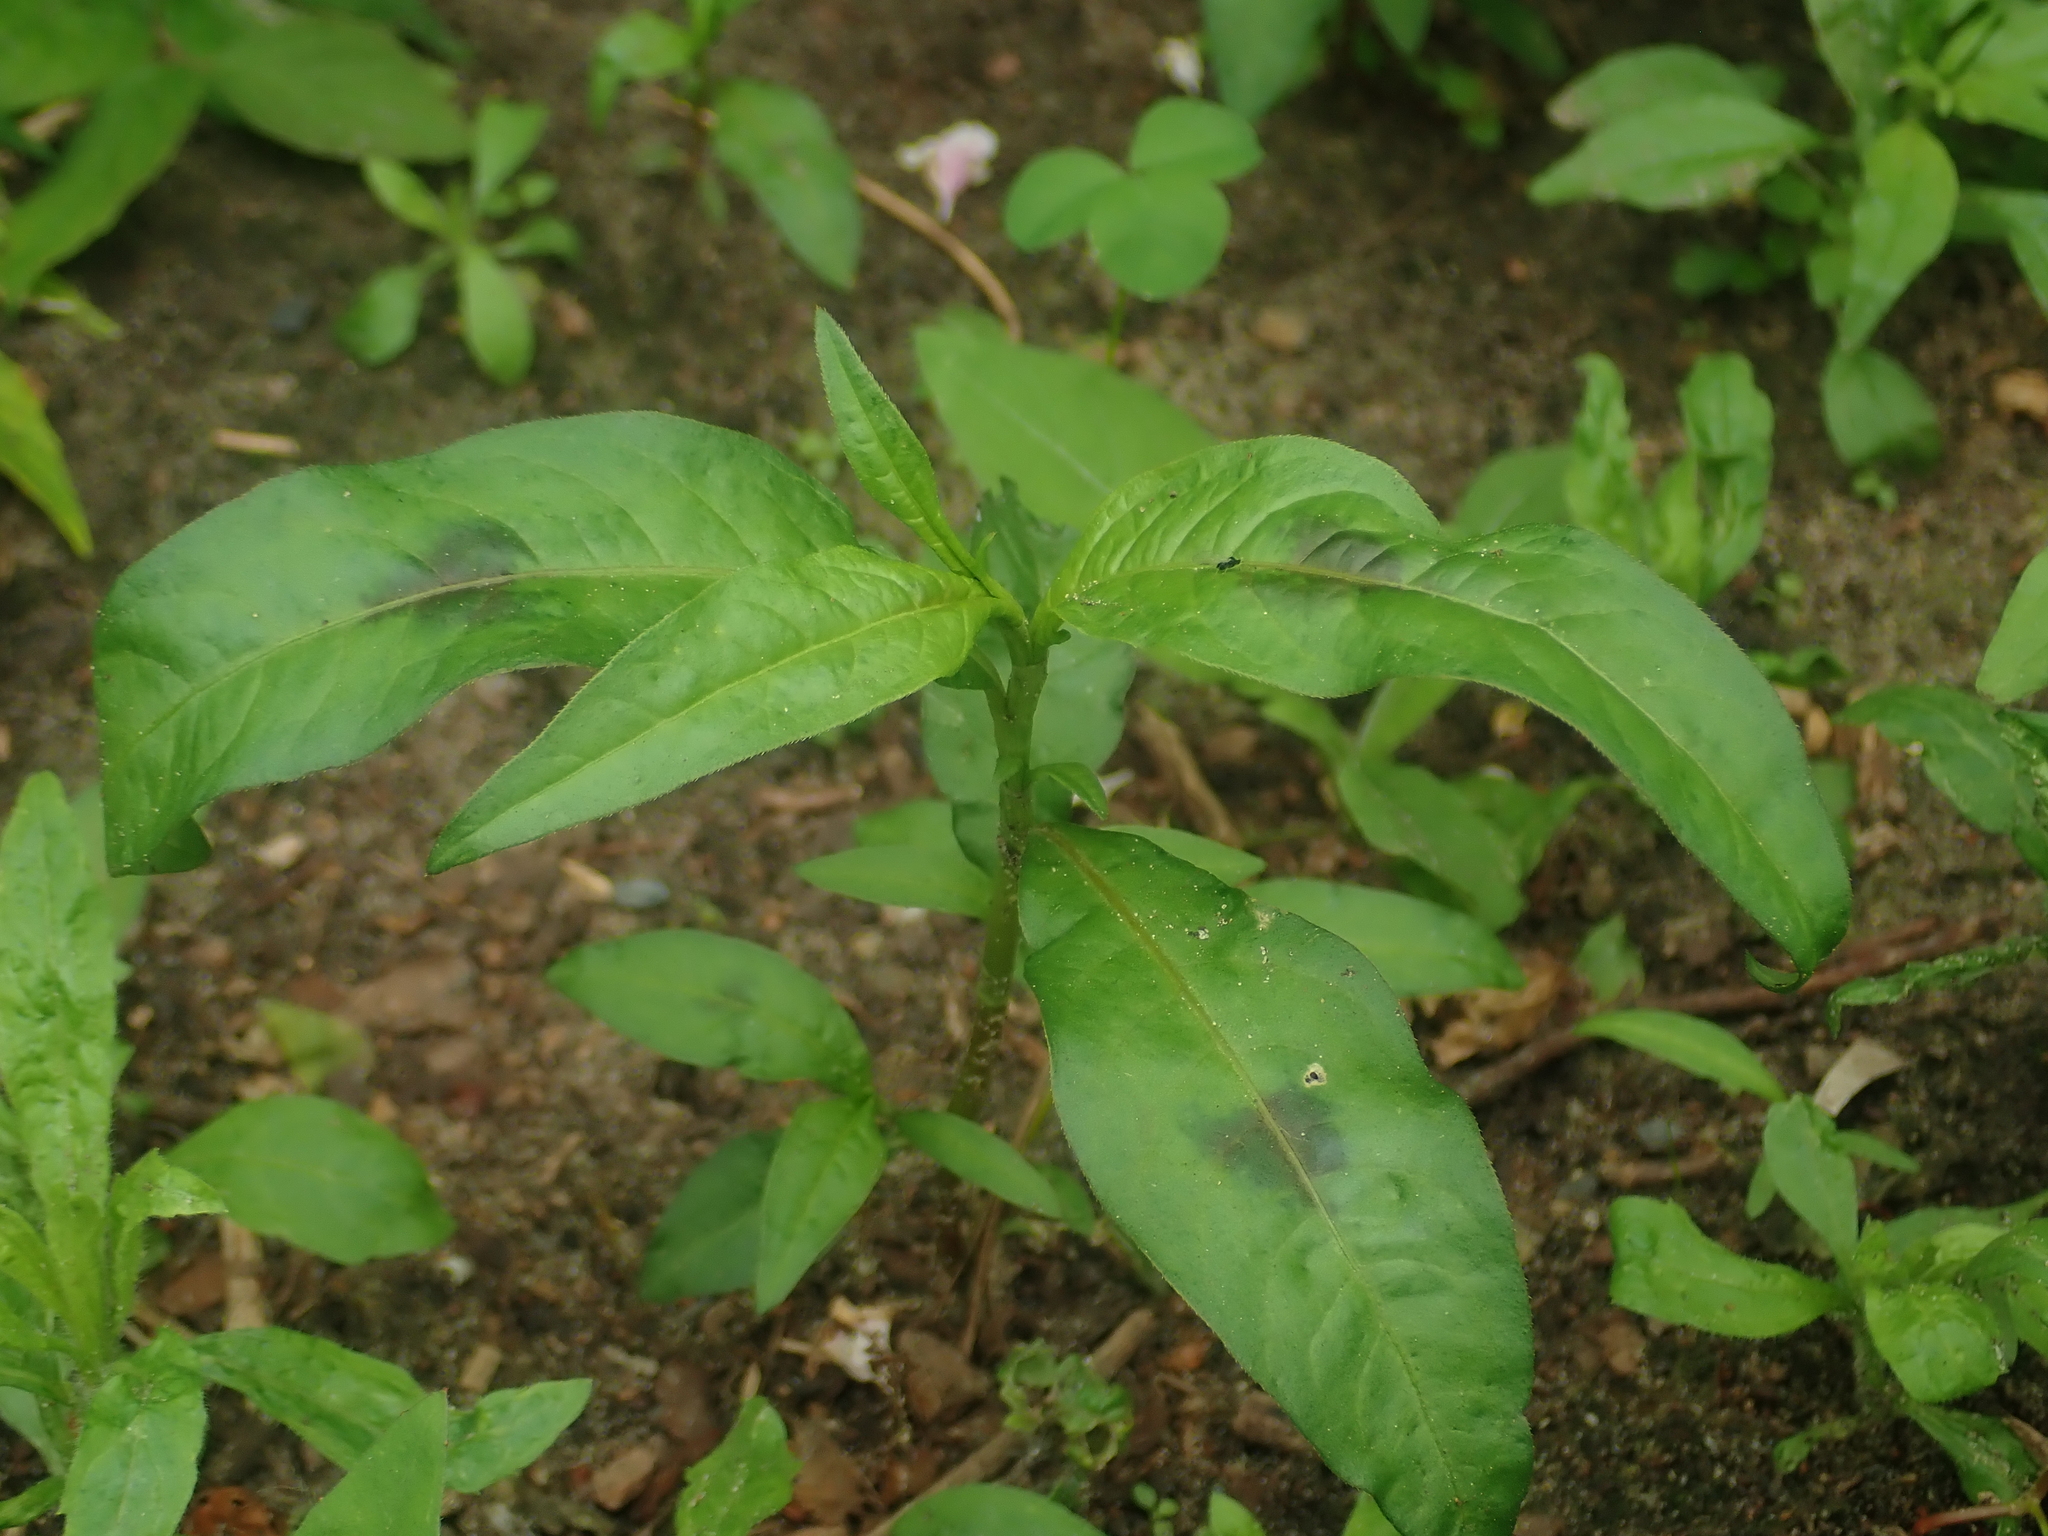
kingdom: Plantae
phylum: Tracheophyta
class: Magnoliopsida
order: Caryophyllales
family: Polygonaceae
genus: Persicaria
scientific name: Persicaria maculosa
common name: Redshank
